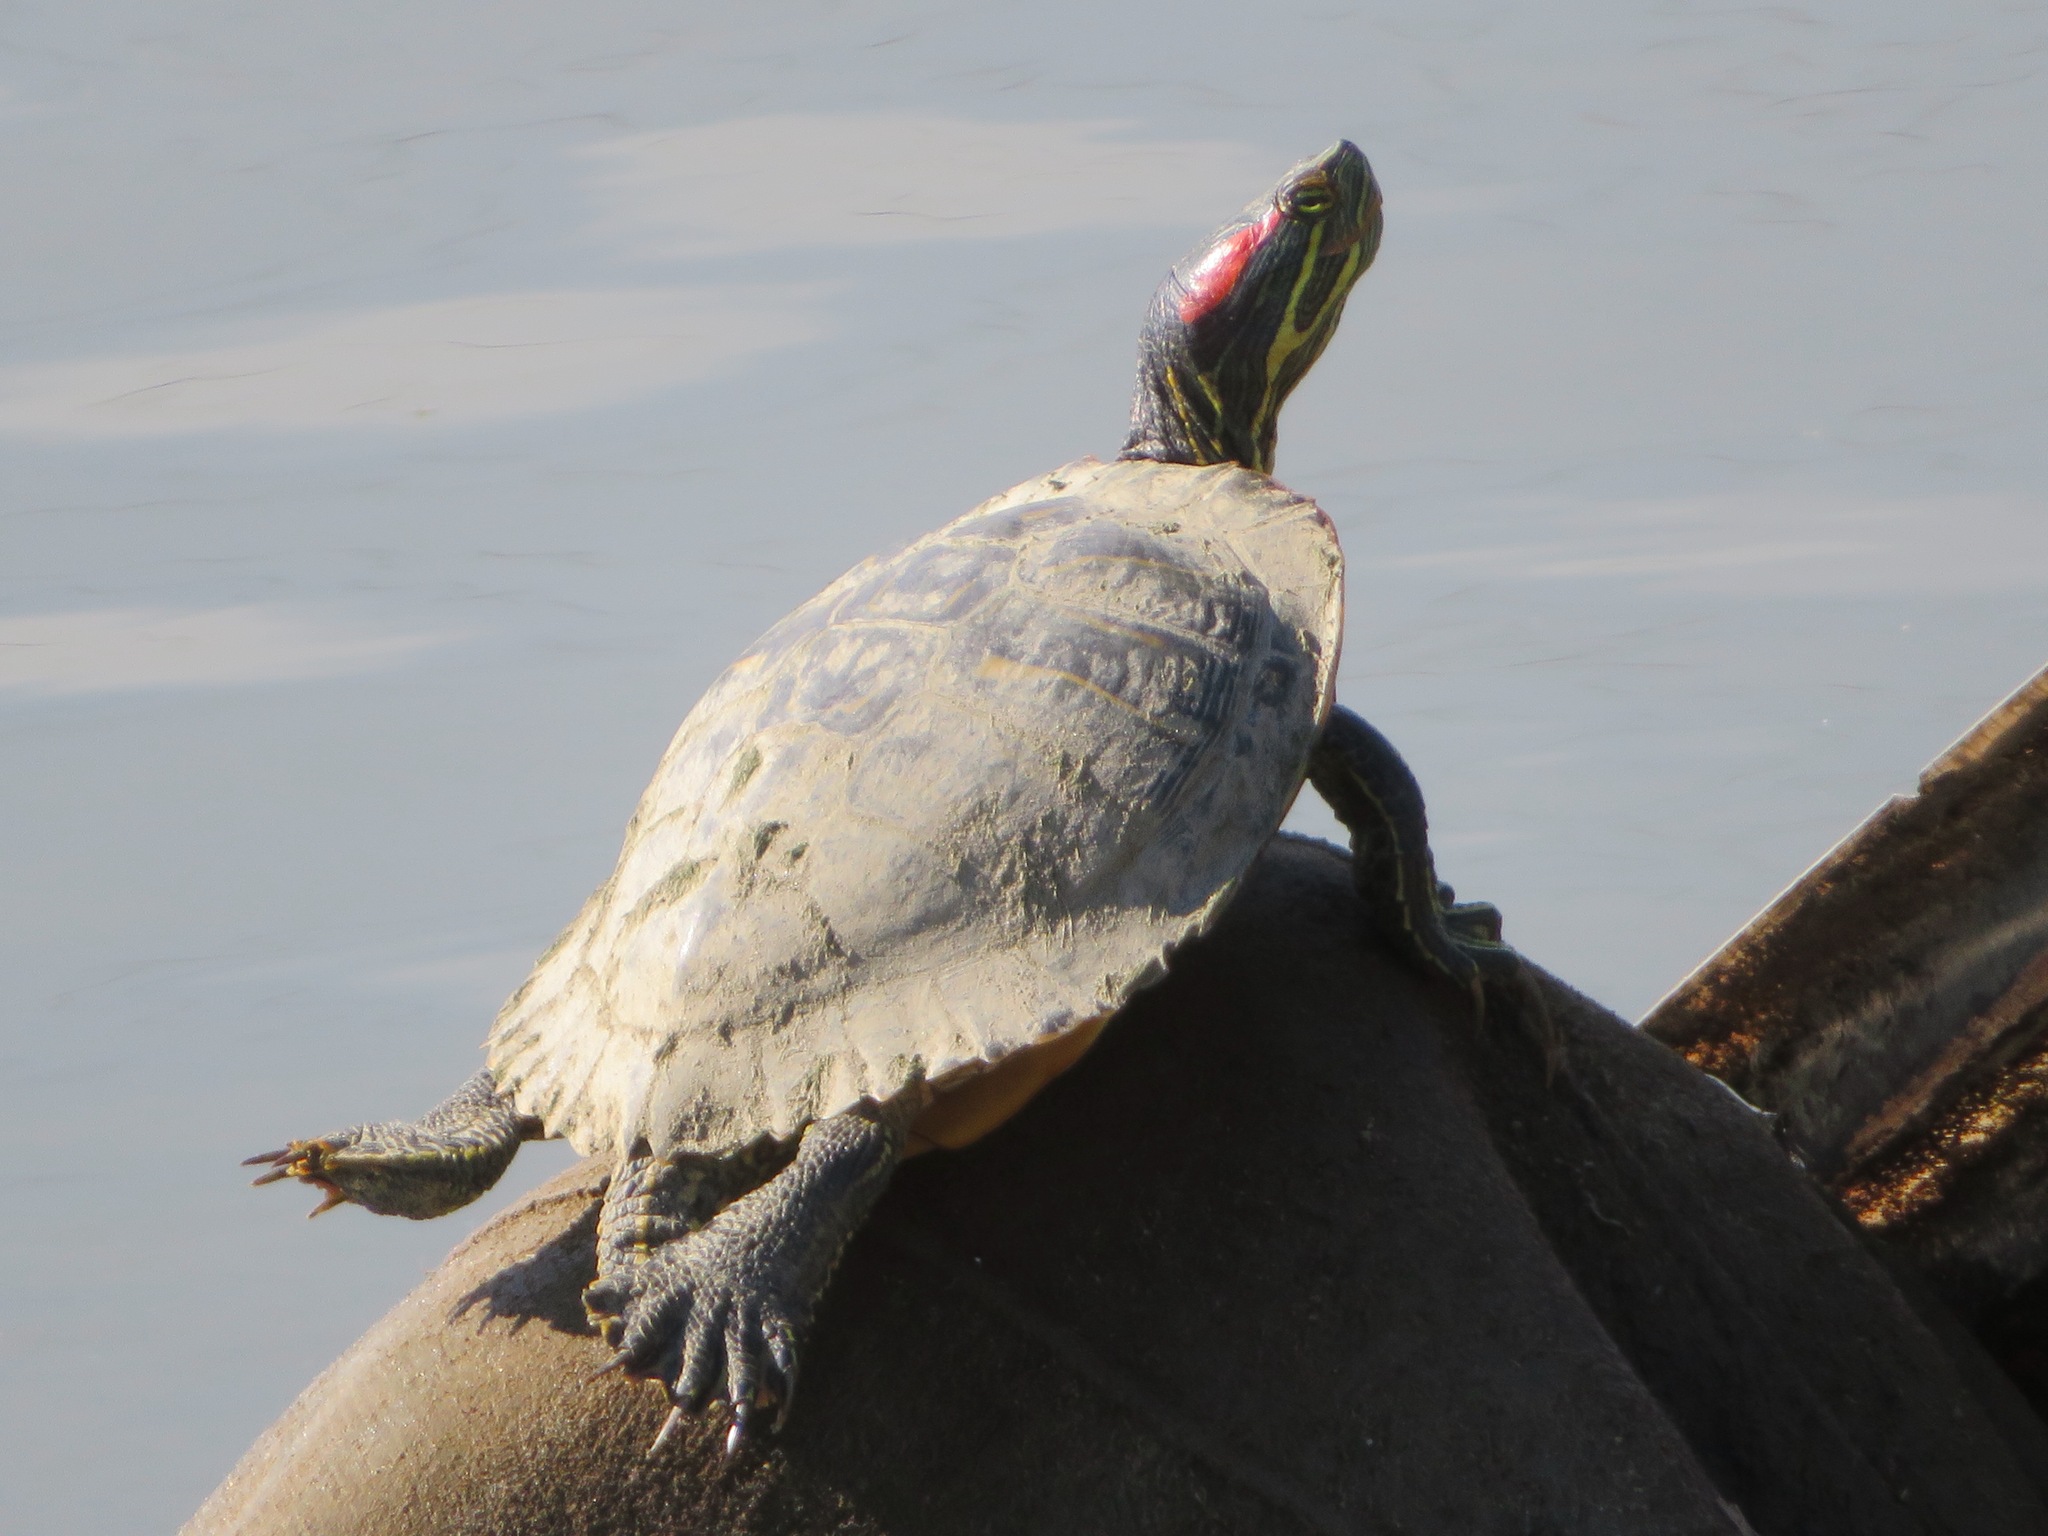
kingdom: Animalia
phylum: Chordata
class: Testudines
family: Emydidae
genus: Trachemys
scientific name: Trachemys scripta
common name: Slider
